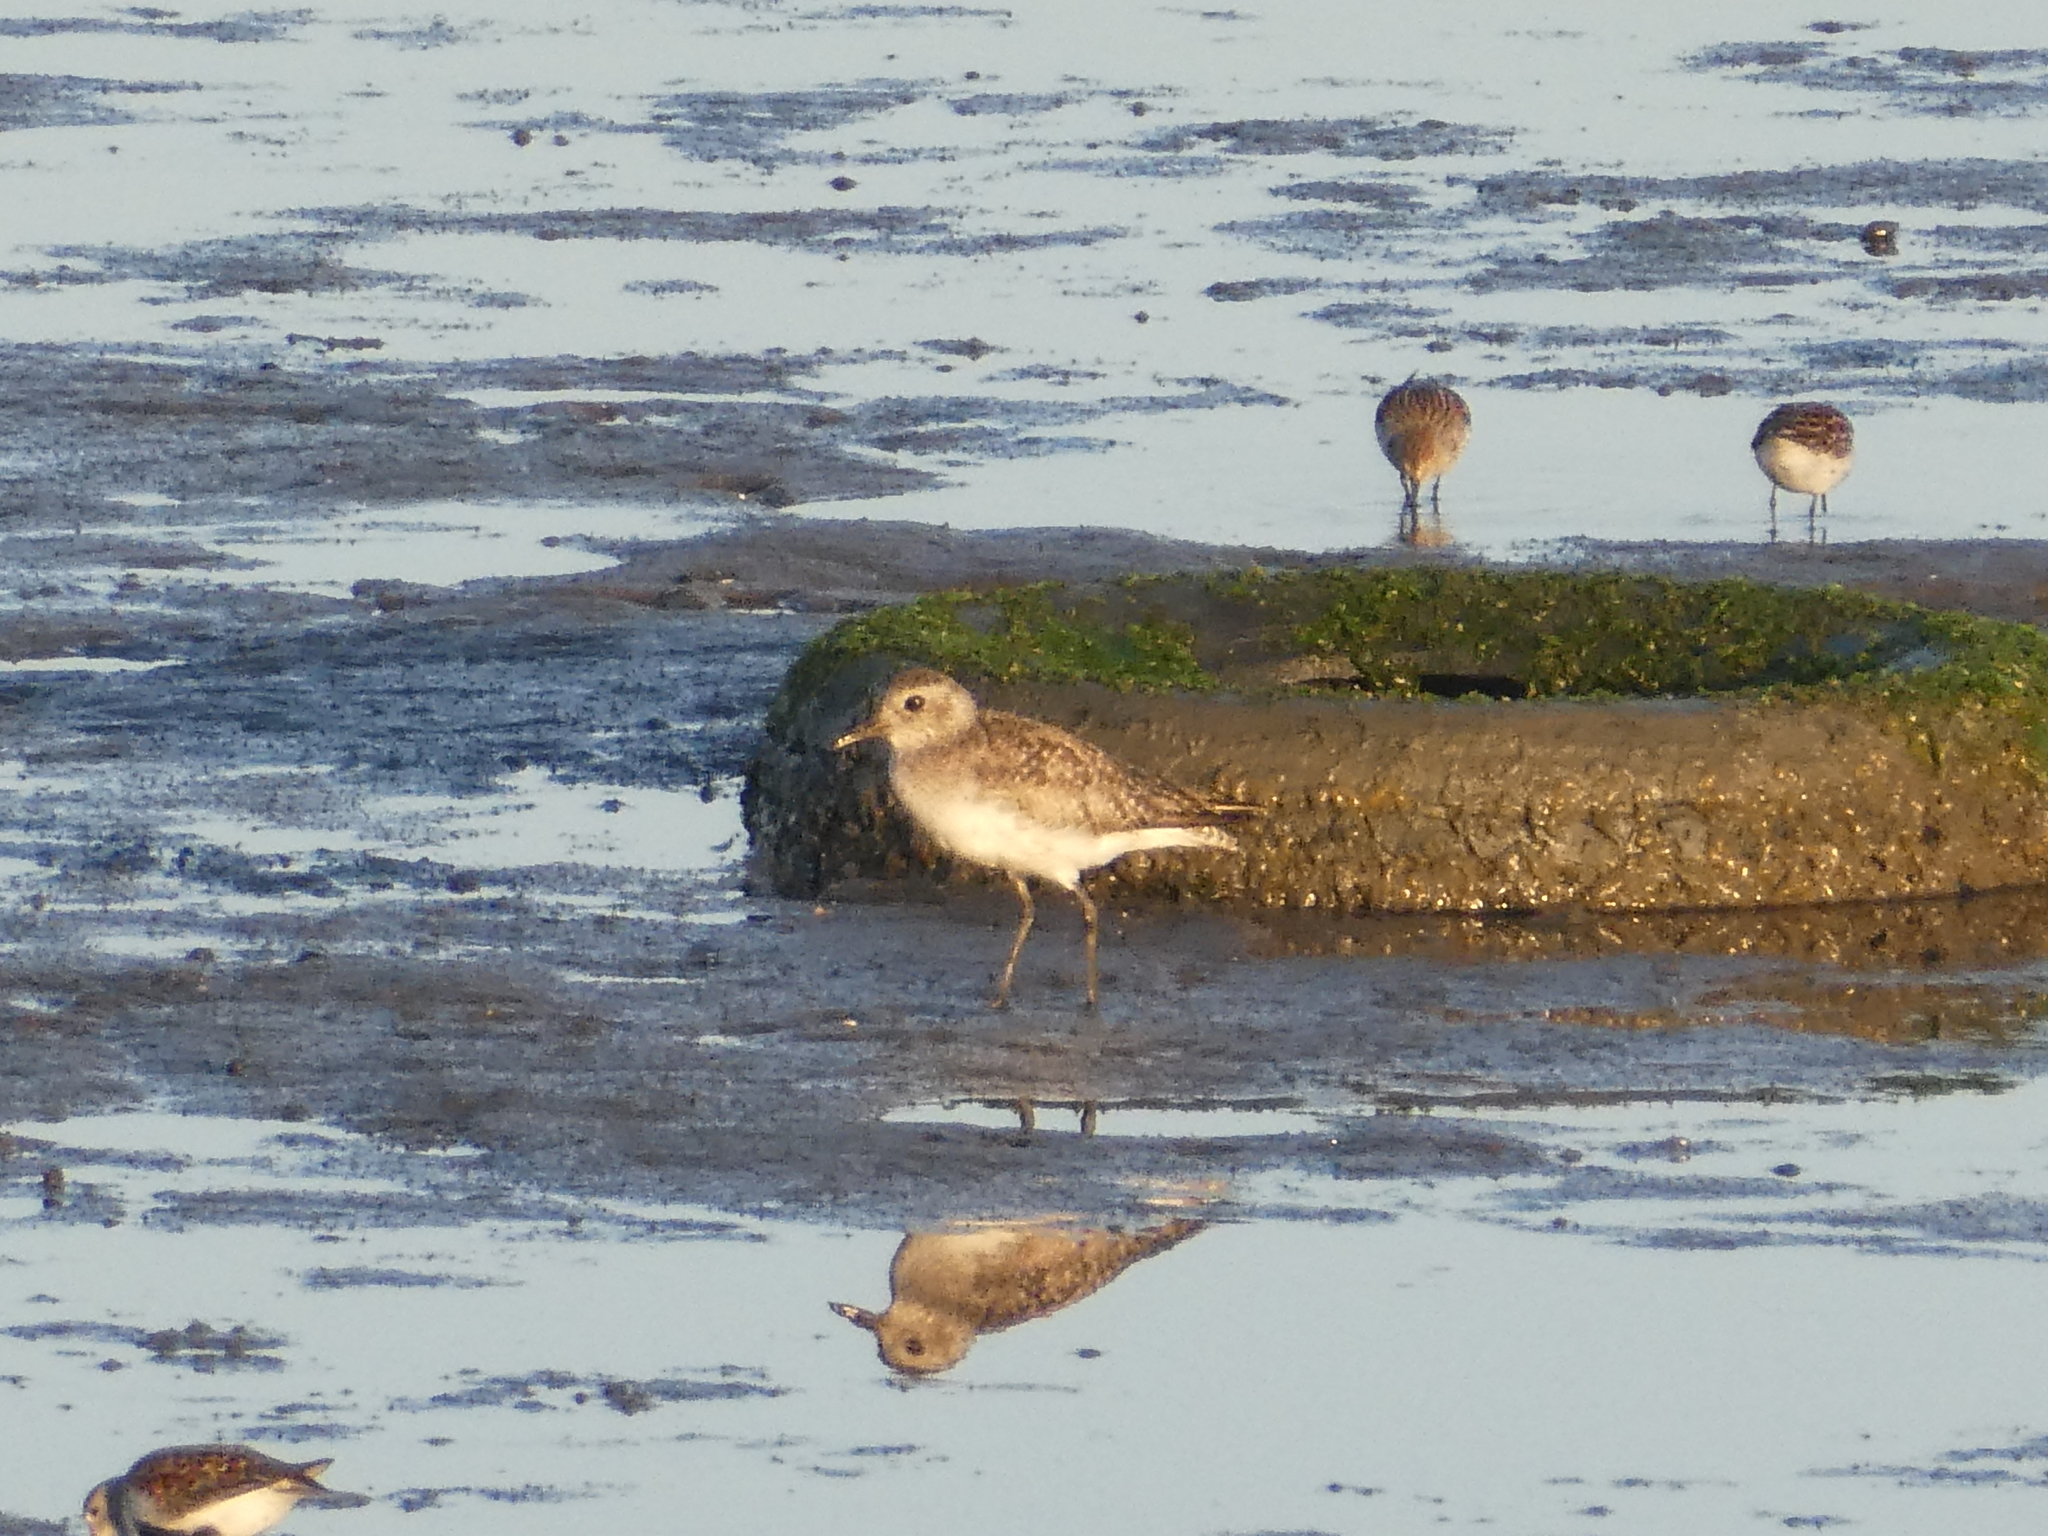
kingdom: Animalia
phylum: Chordata
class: Aves
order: Charadriiformes
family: Charadriidae
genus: Pluvialis
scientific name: Pluvialis squatarola
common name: Grey plover
